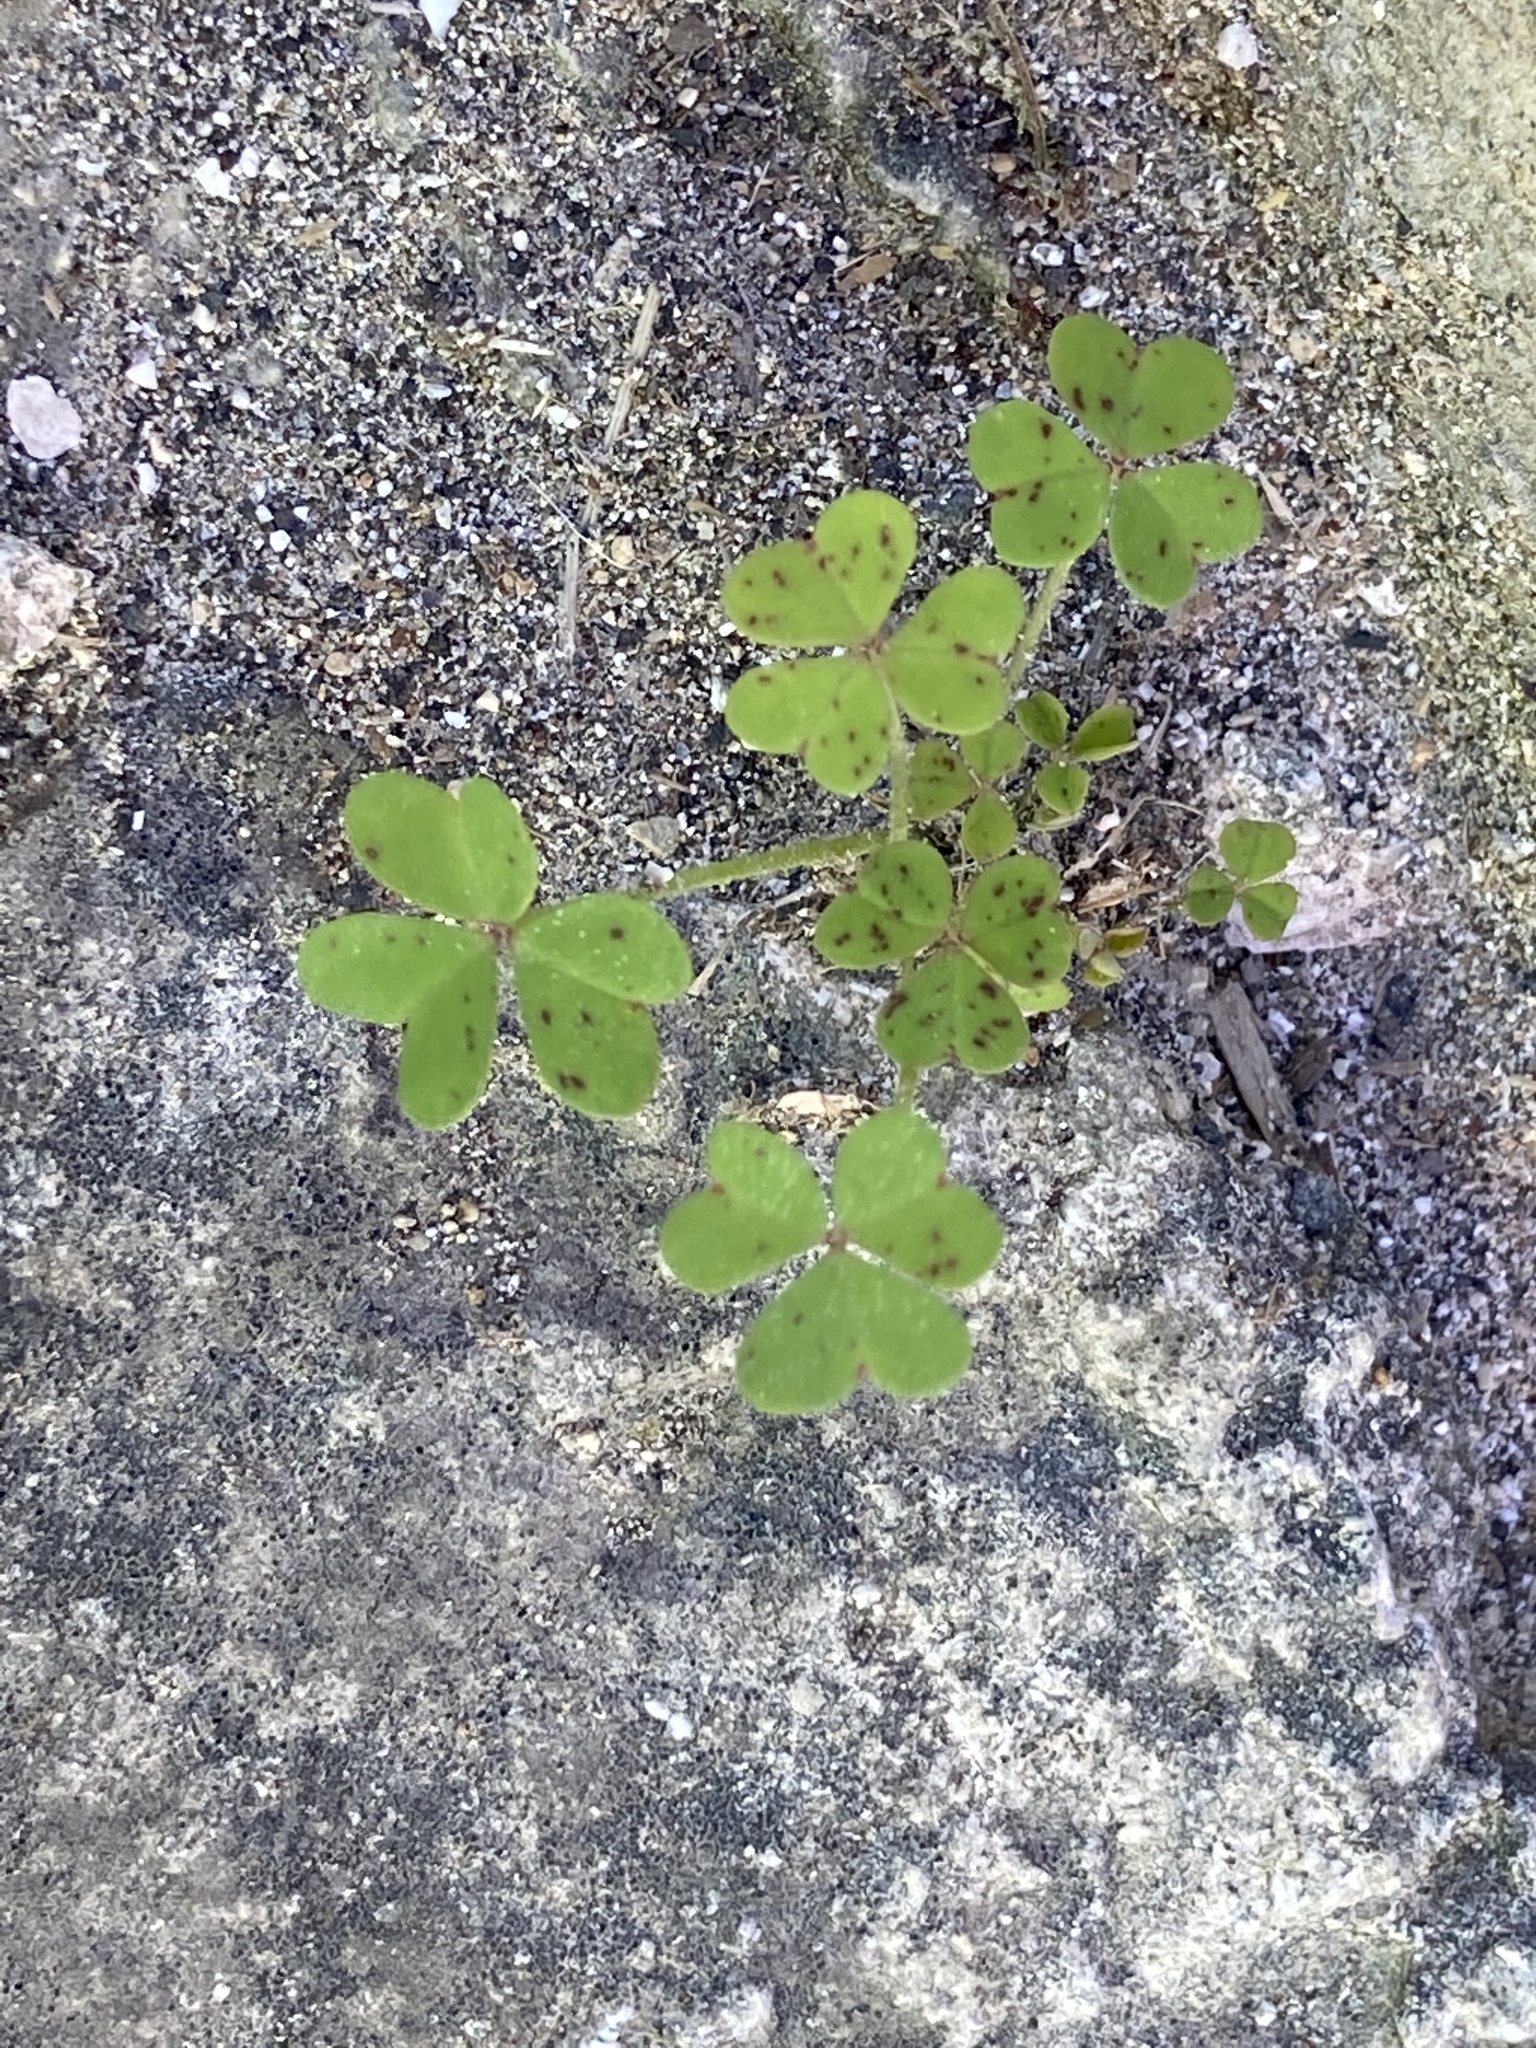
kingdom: Plantae
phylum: Tracheophyta
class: Magnoliopsida
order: Oxalidales
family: Oxalidaceae
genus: Oxalis
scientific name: Oxalis pes-caprae
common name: Bermuda-buttercup
